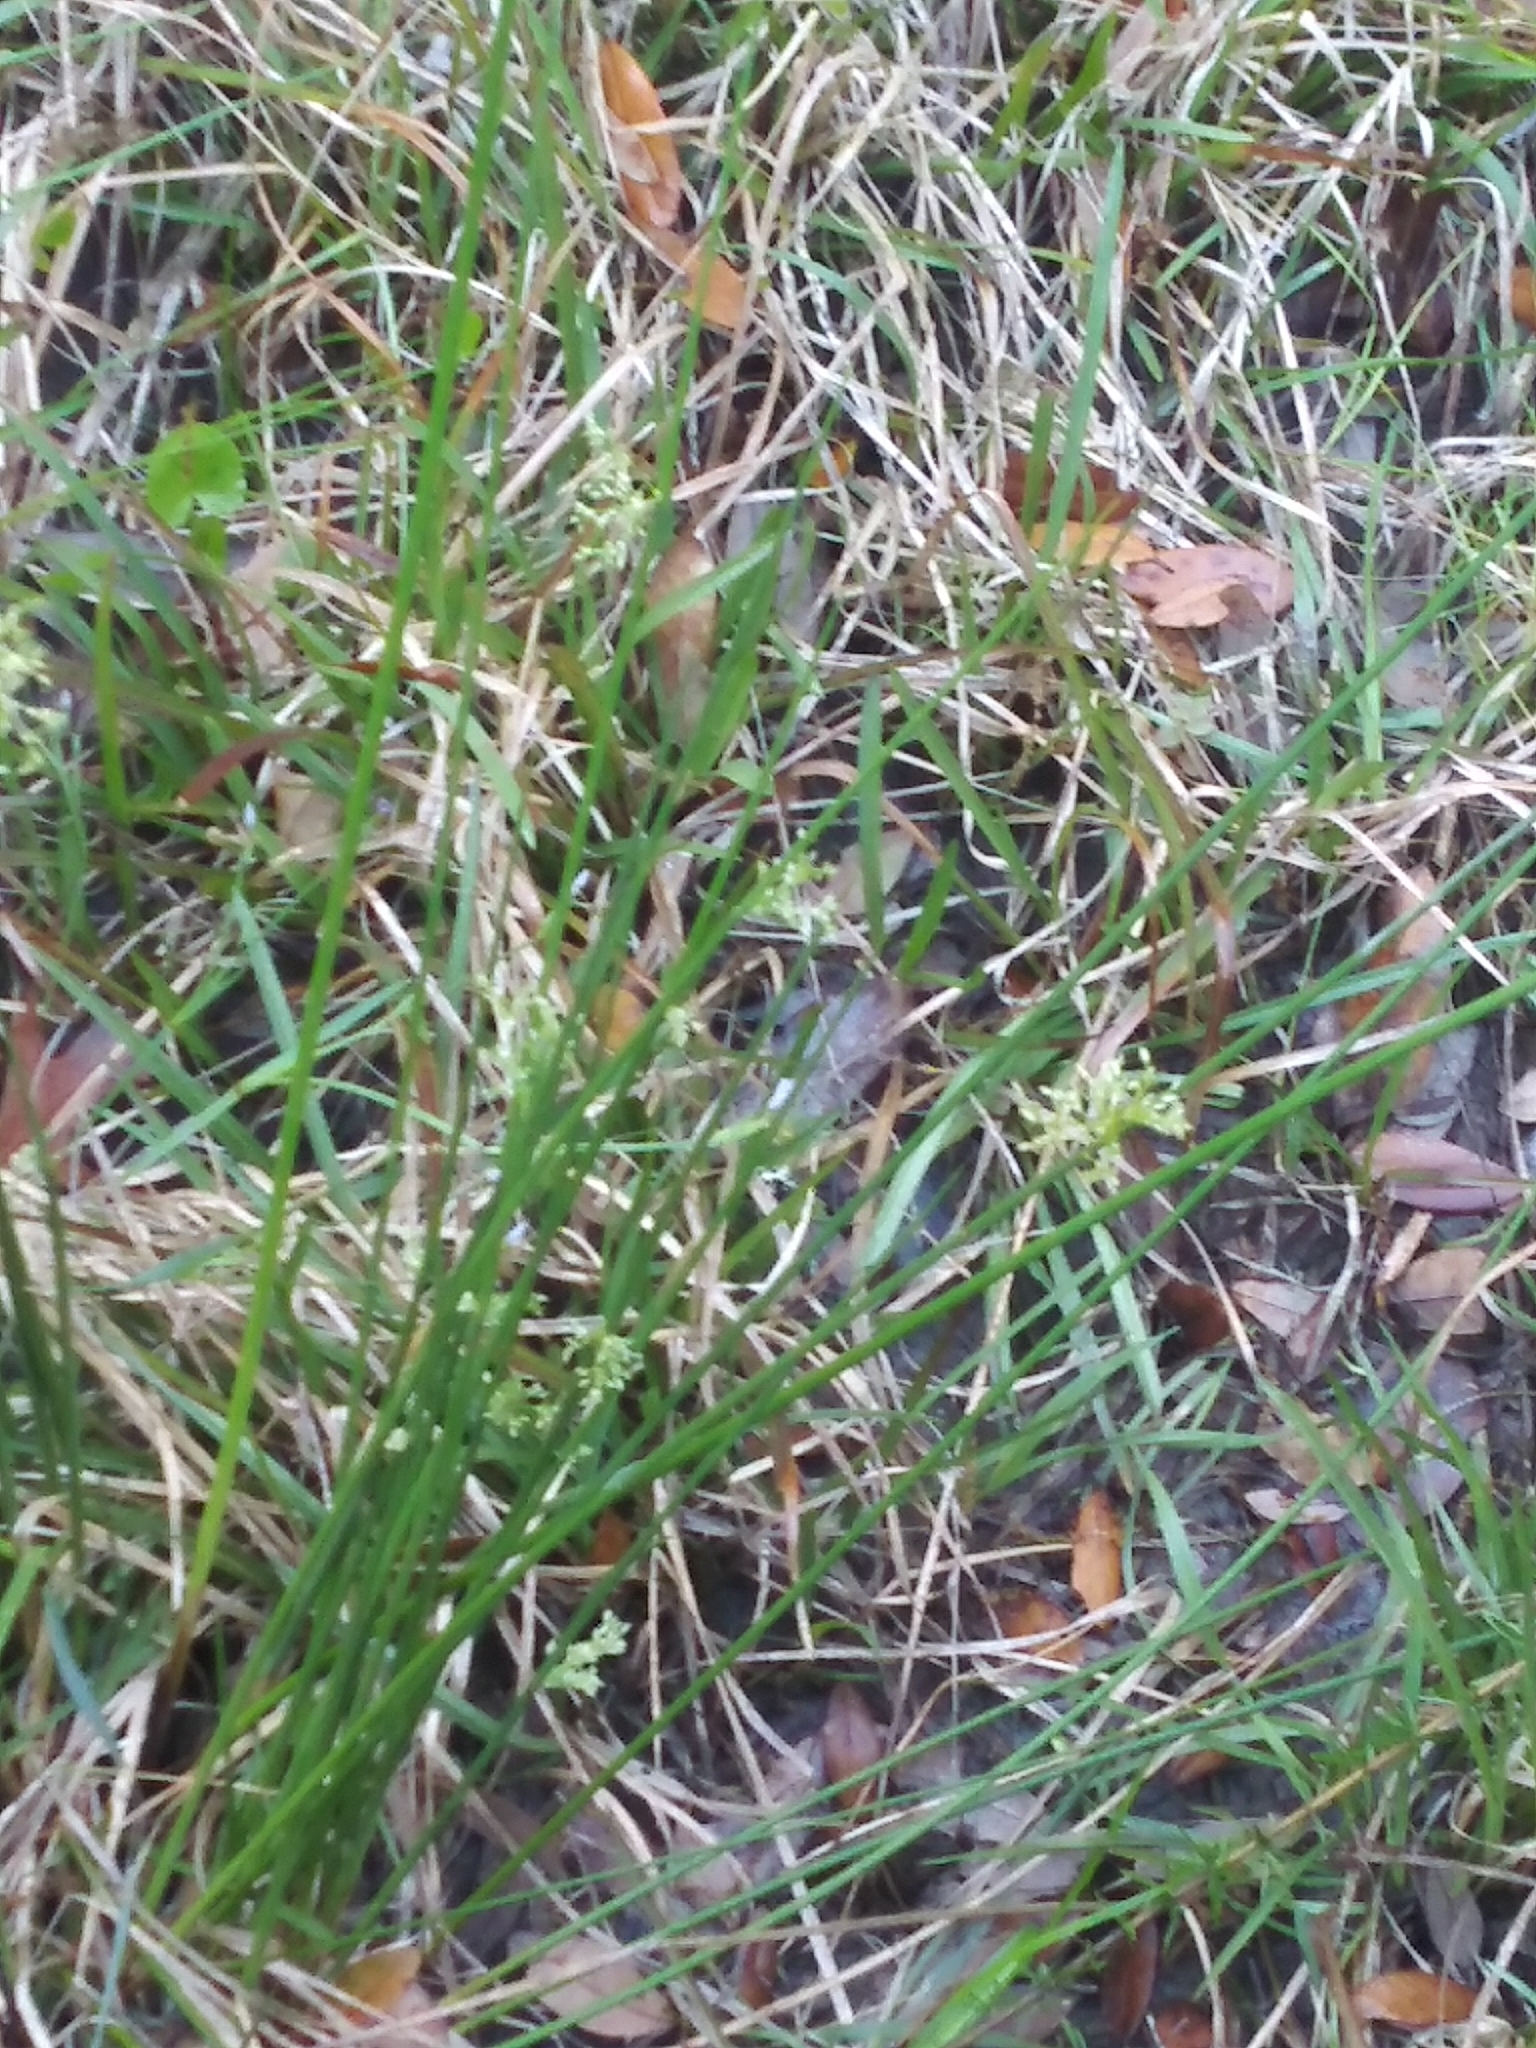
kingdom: Plantae
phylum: Tracheophyta
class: Liliopsida
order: Poales
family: Juncaceae
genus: Juncus
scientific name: Juncus effusus
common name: Soft rush
